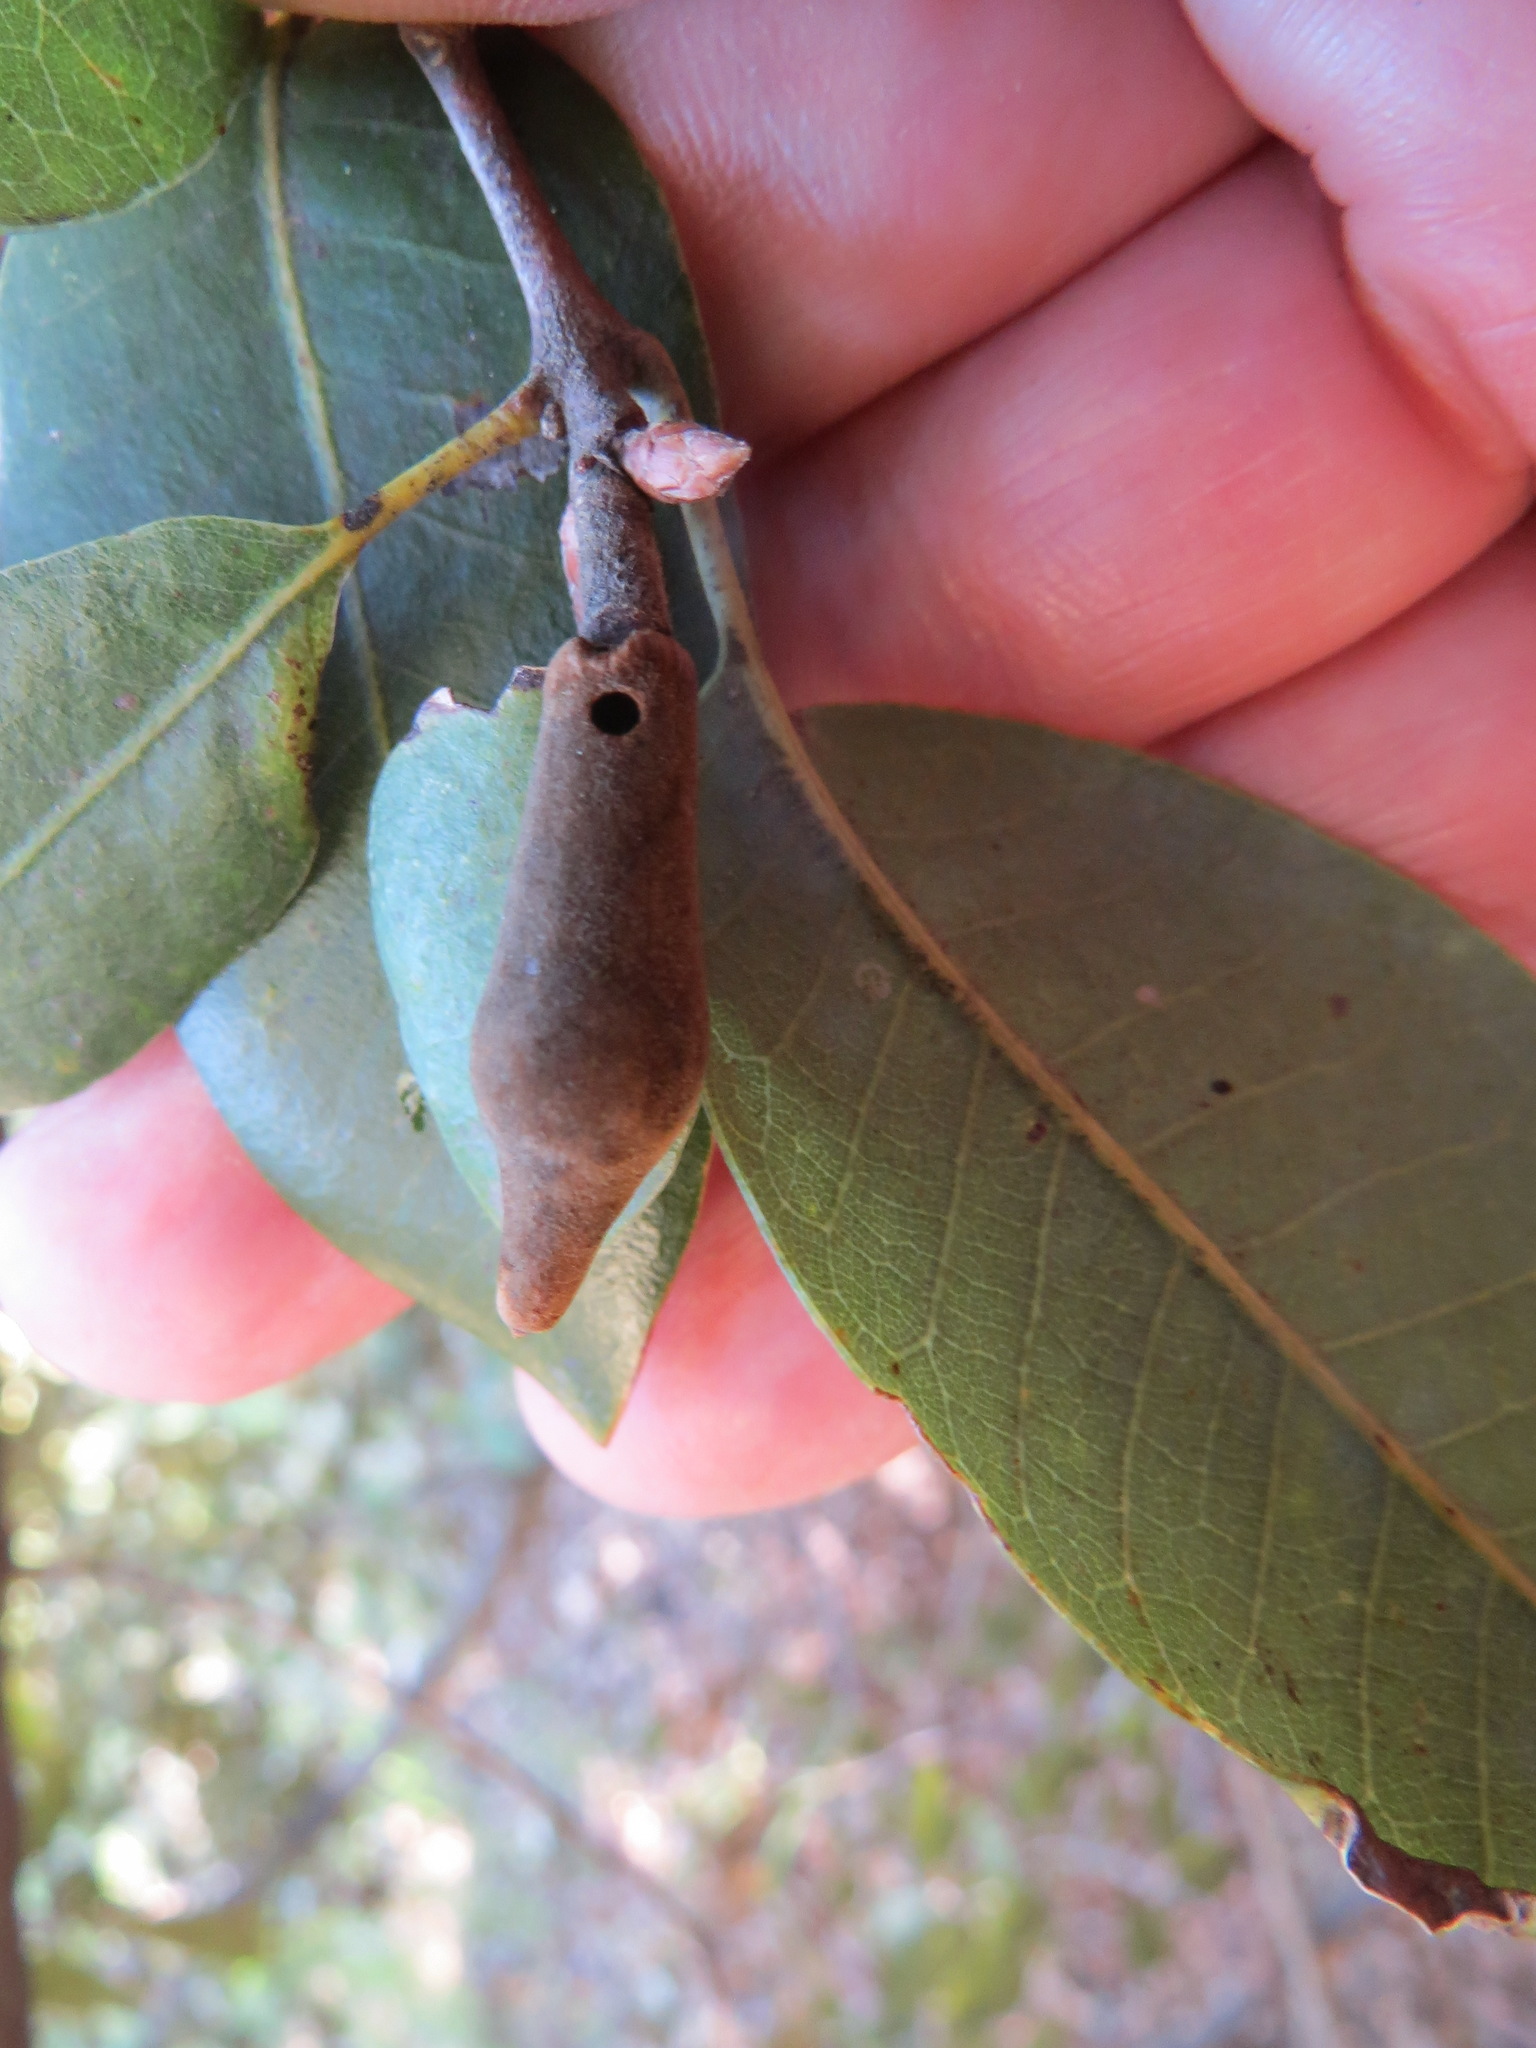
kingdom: Animalia
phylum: Arthropoda
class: Insecta
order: Hymenoptera
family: Cynipidae
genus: Heteroecus
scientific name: Heteroecus
